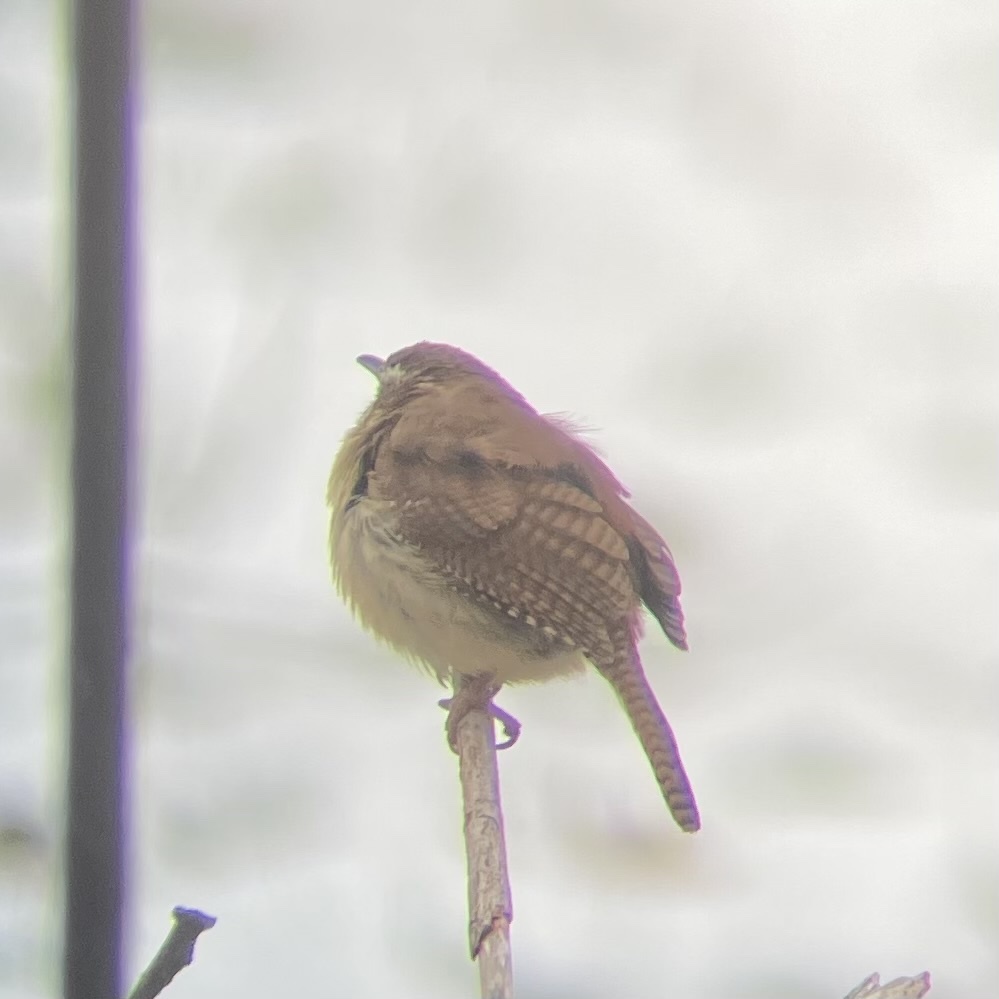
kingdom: Animalia
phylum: Chordata
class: Aves
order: Passeriformes
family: Troglodytidae
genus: Thryothorus
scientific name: Thryothorus ludovicianus
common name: Carolina wren
